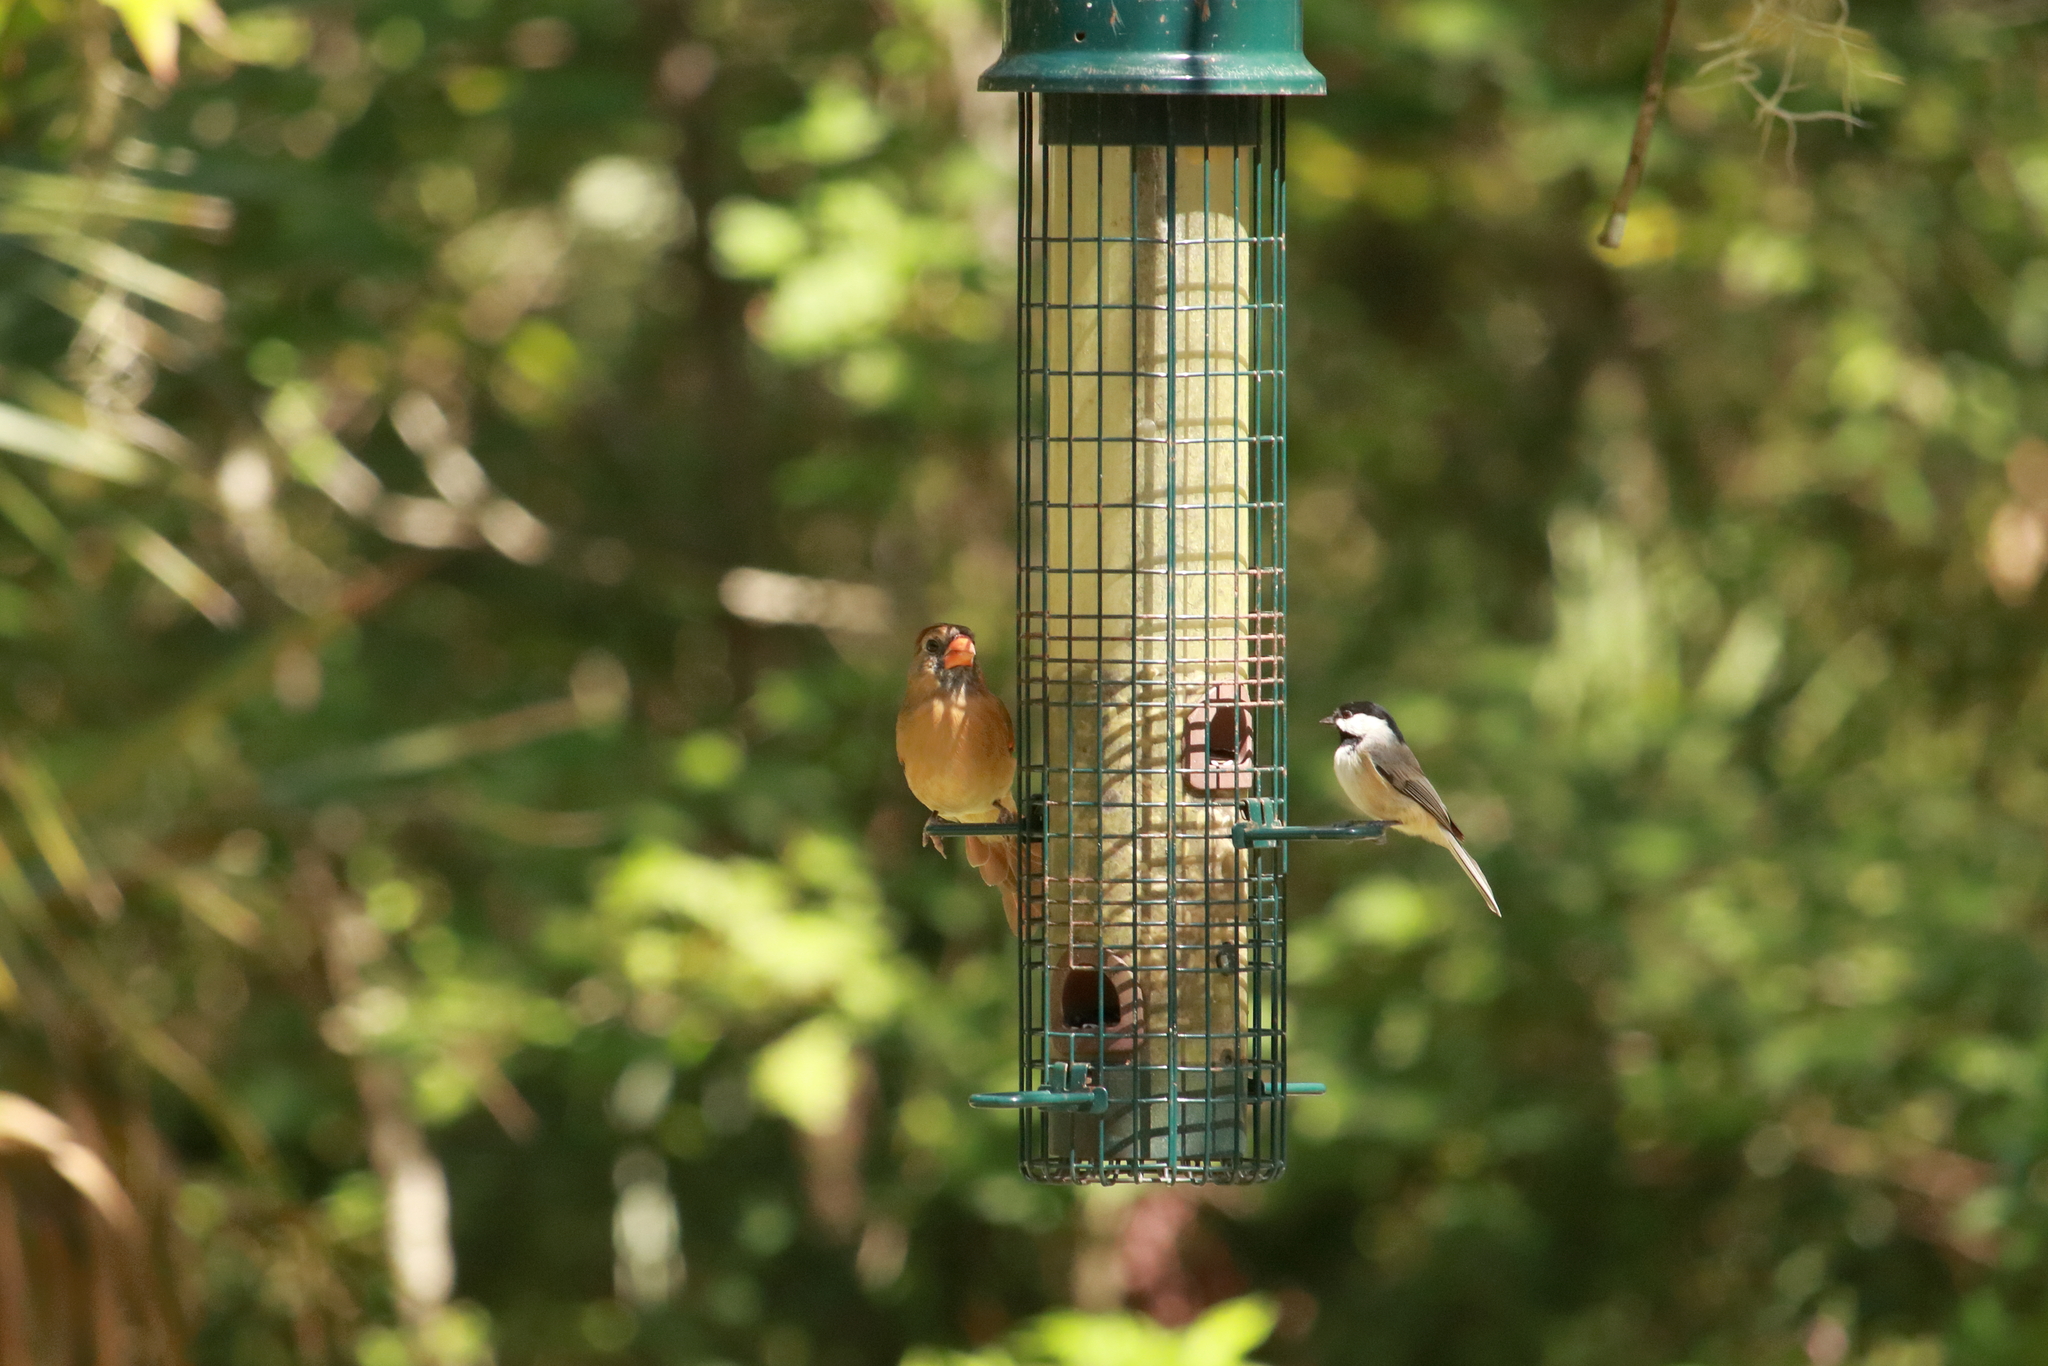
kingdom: Animalia
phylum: Chordata
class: Aves
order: Passeriformes
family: Paridae
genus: Poecile
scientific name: Poecile carolinensis
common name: Carolina chickadee
